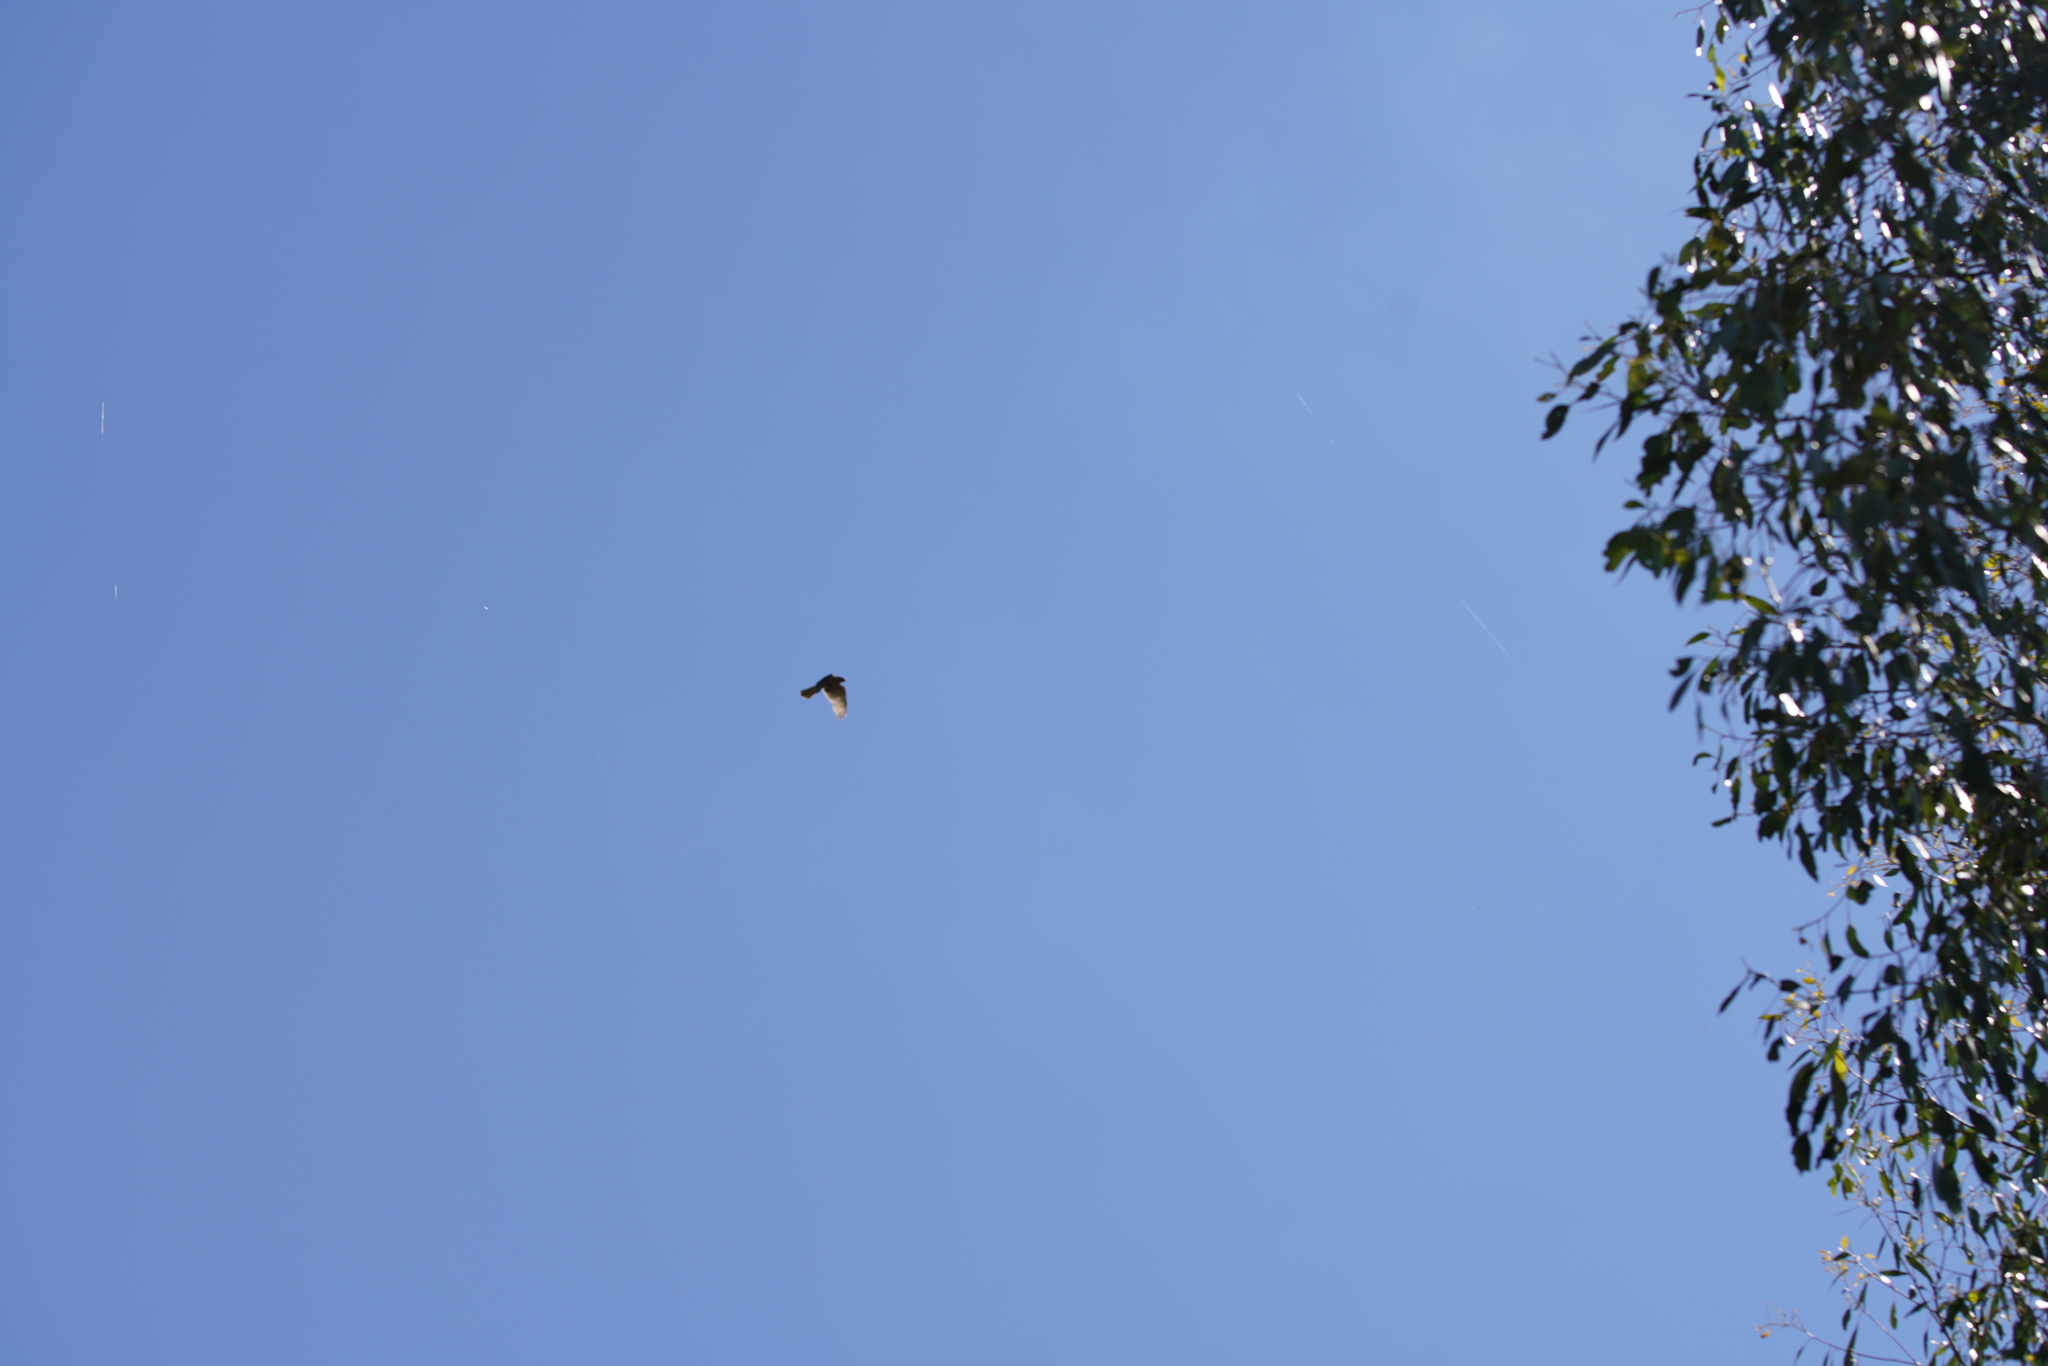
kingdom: Animalia
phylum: Chordata
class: Aves
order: Accipitriformes
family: Accipitridae
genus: Accipiter
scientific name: Accipiter fasciatus
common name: Brown goshawk
